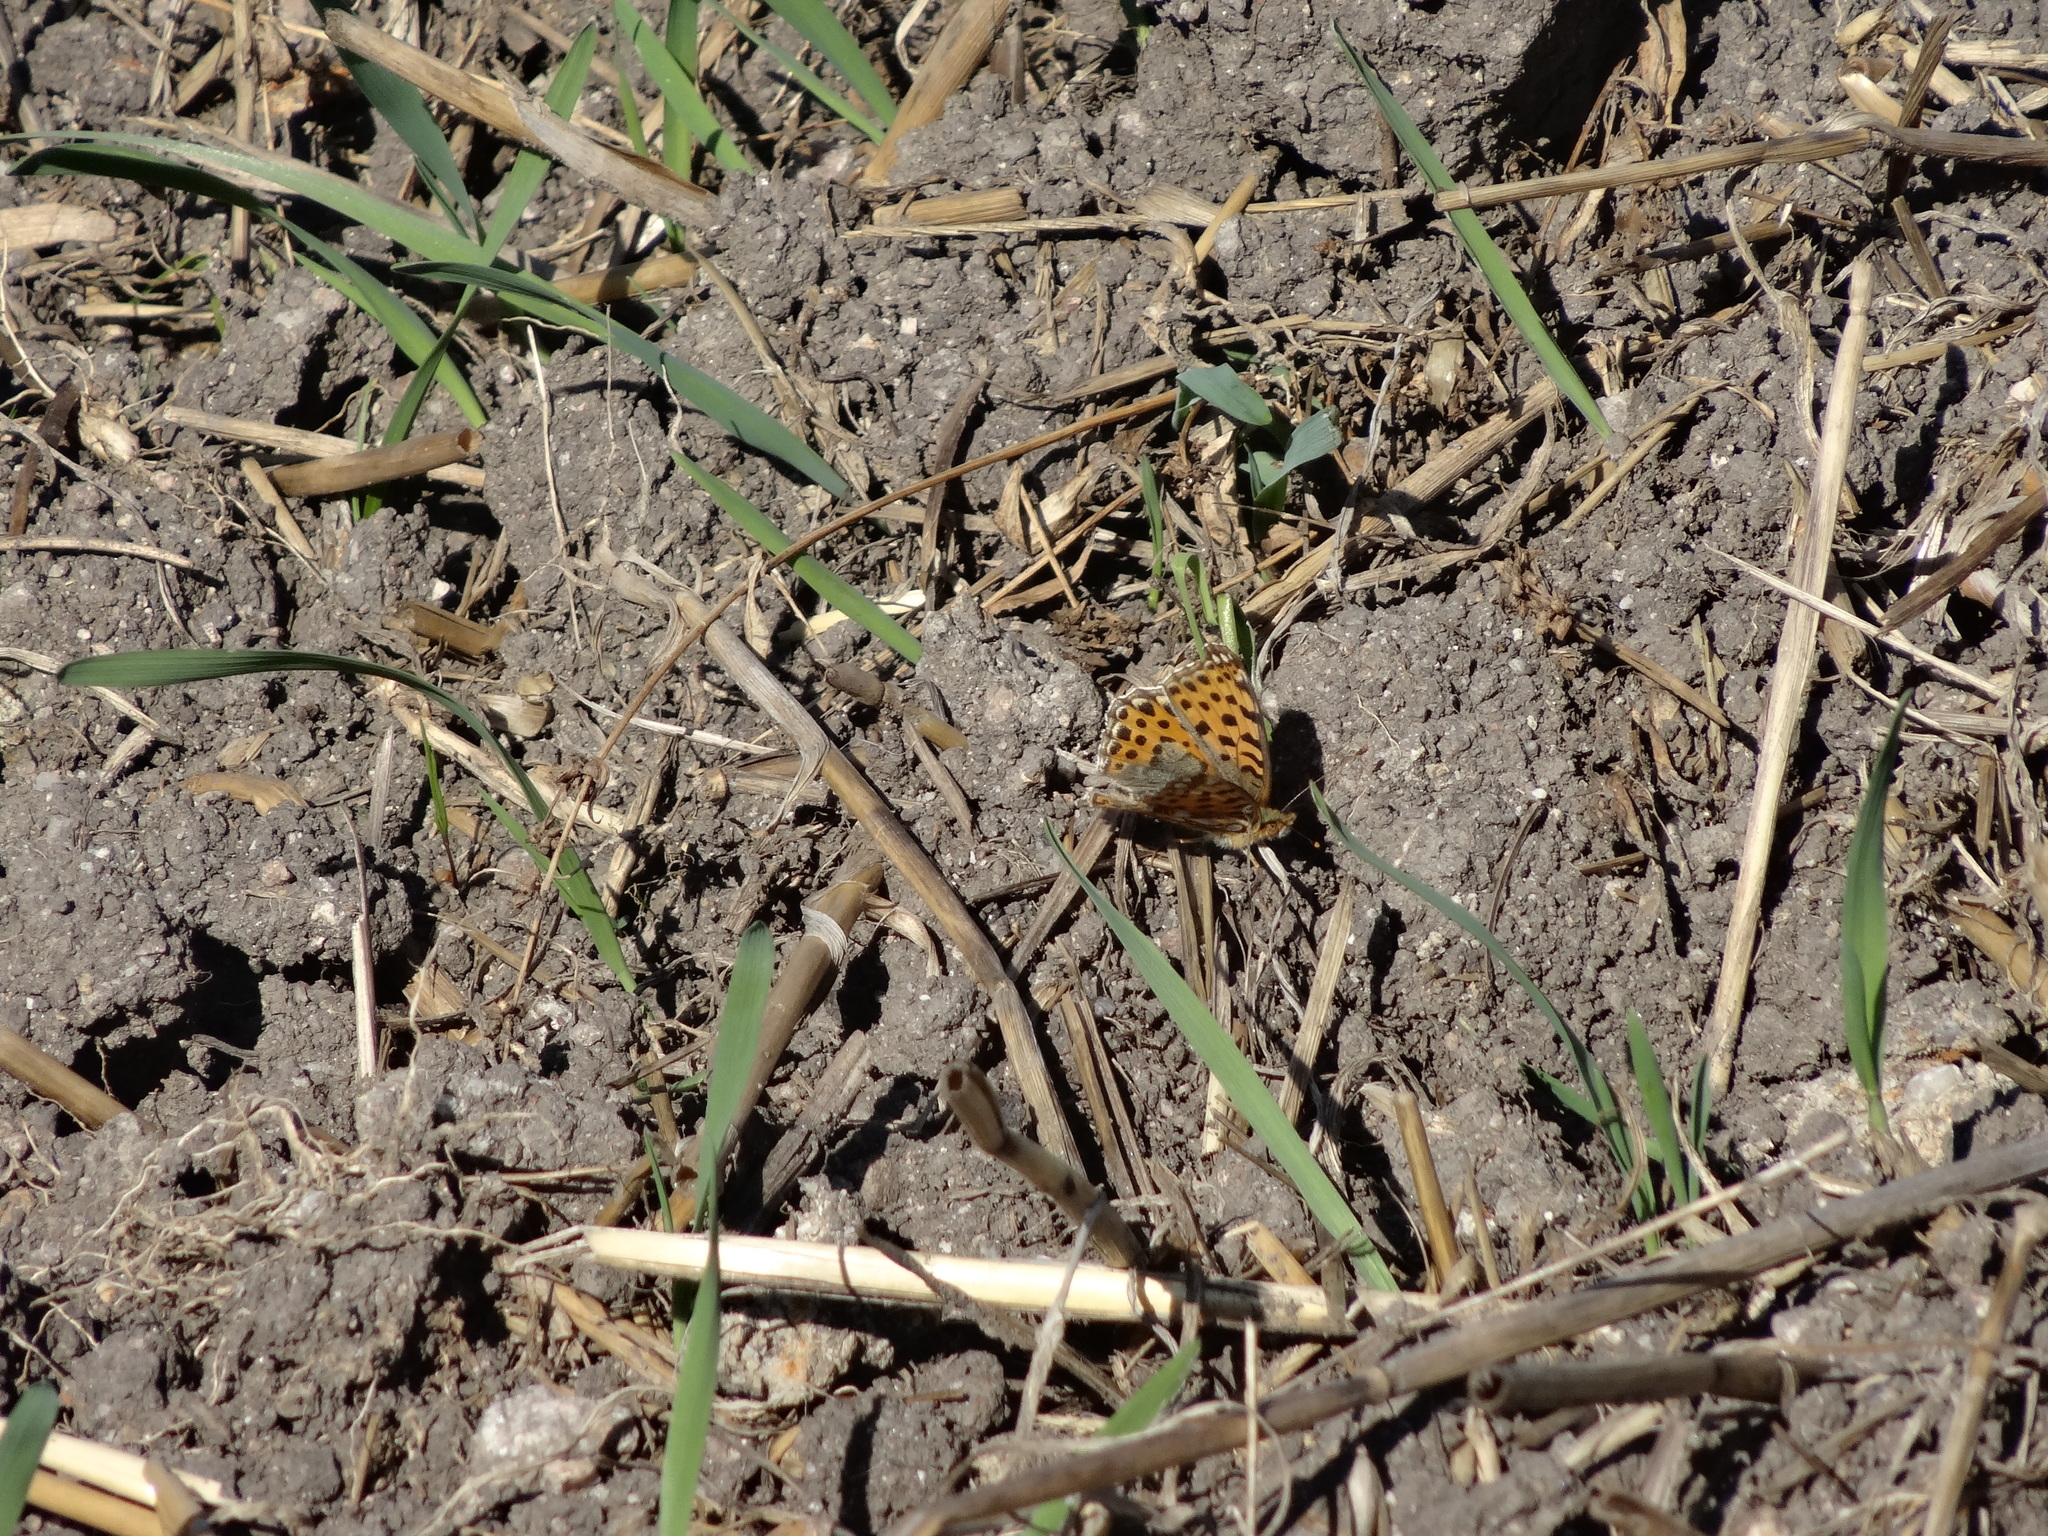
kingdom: Animalia
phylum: Arthropoda
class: Insecta
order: Lepidoptera
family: Nymphalidae
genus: Issoria
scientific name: Issoria lathonia
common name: Queen of spain fritillary
